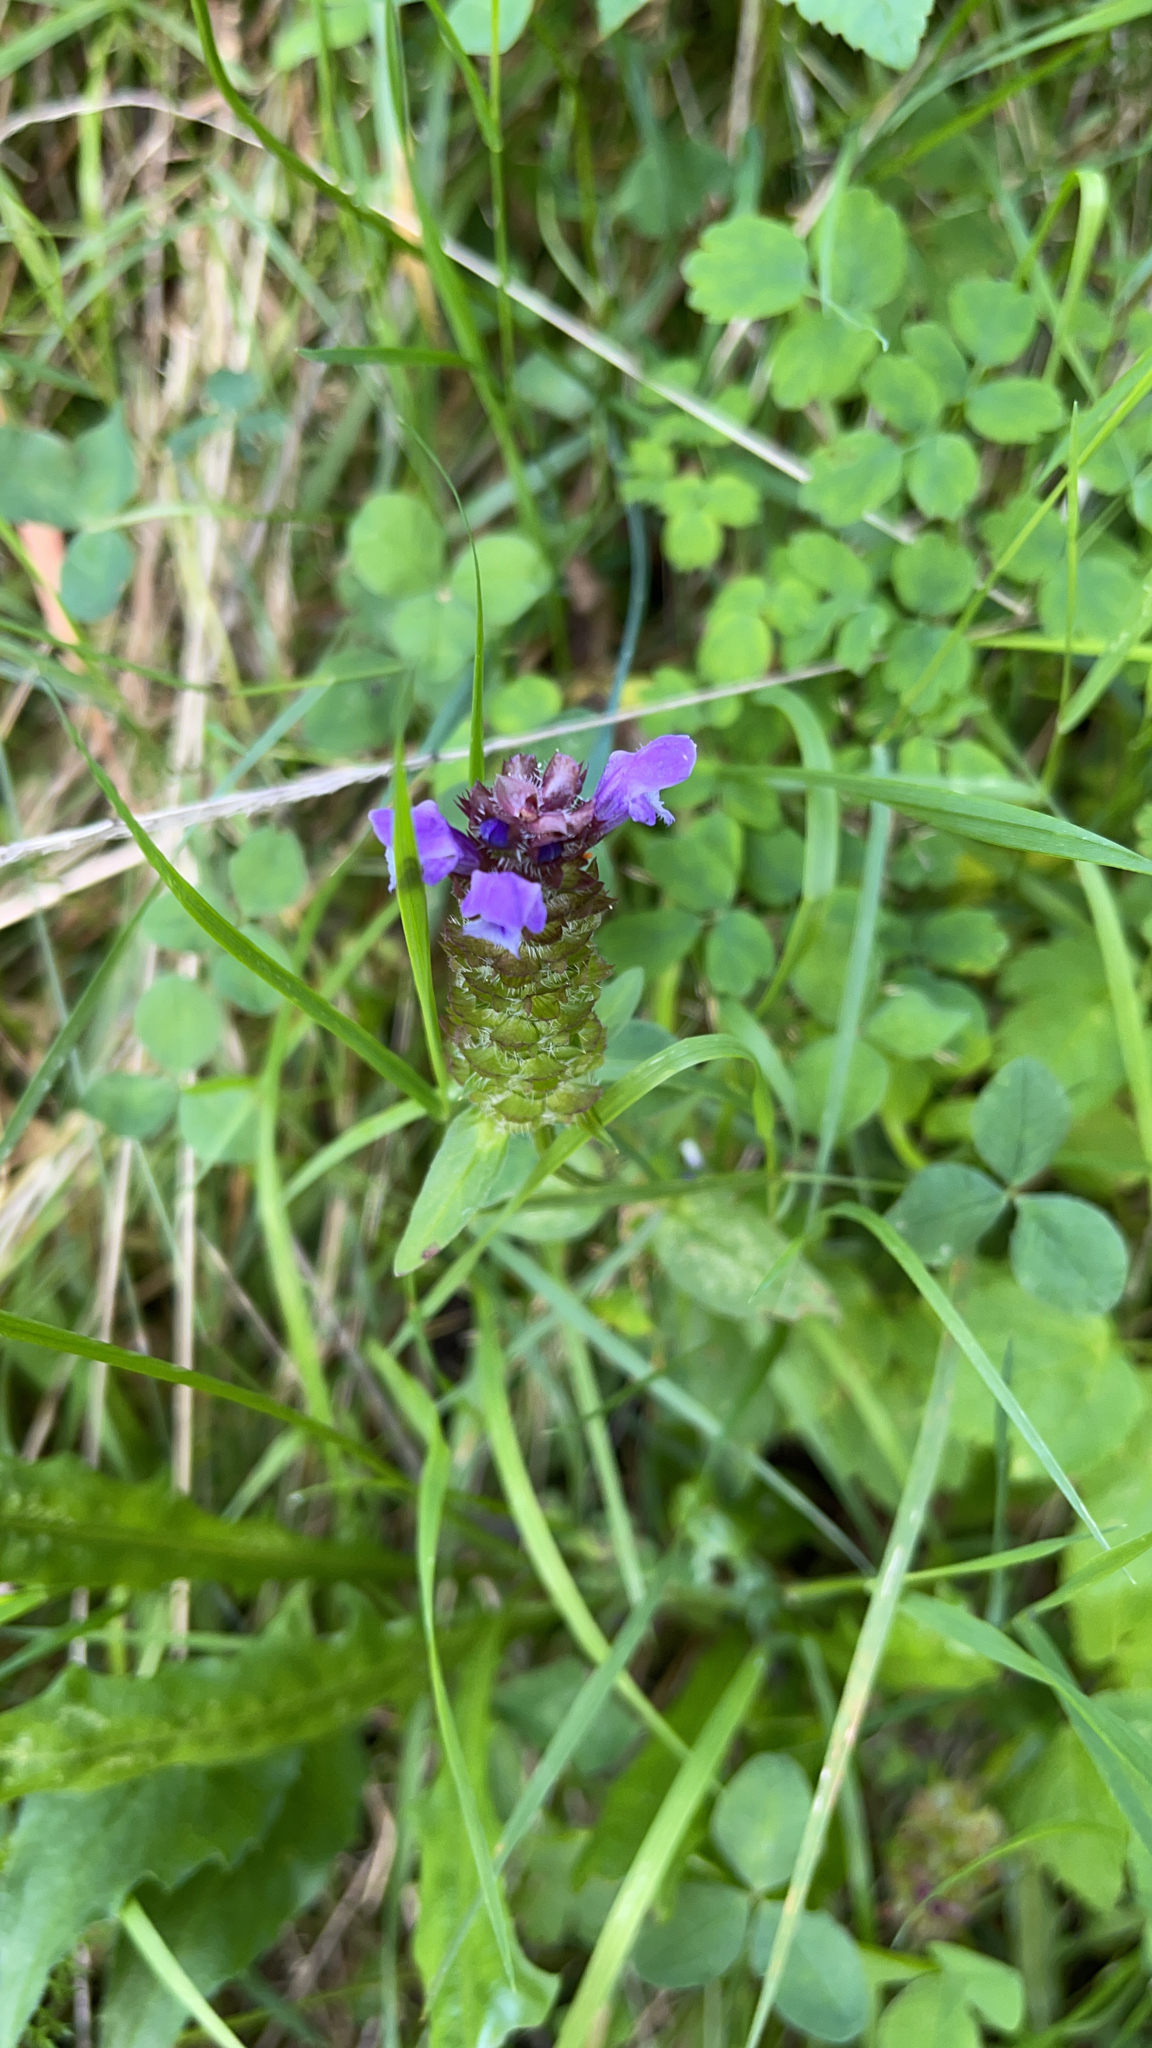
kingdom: Plantae
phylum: Tracheophyta
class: Magnoliopsida
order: Lamiales
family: Lamiaceae
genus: Prunella
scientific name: Prunella vulgaris
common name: Heal-all
